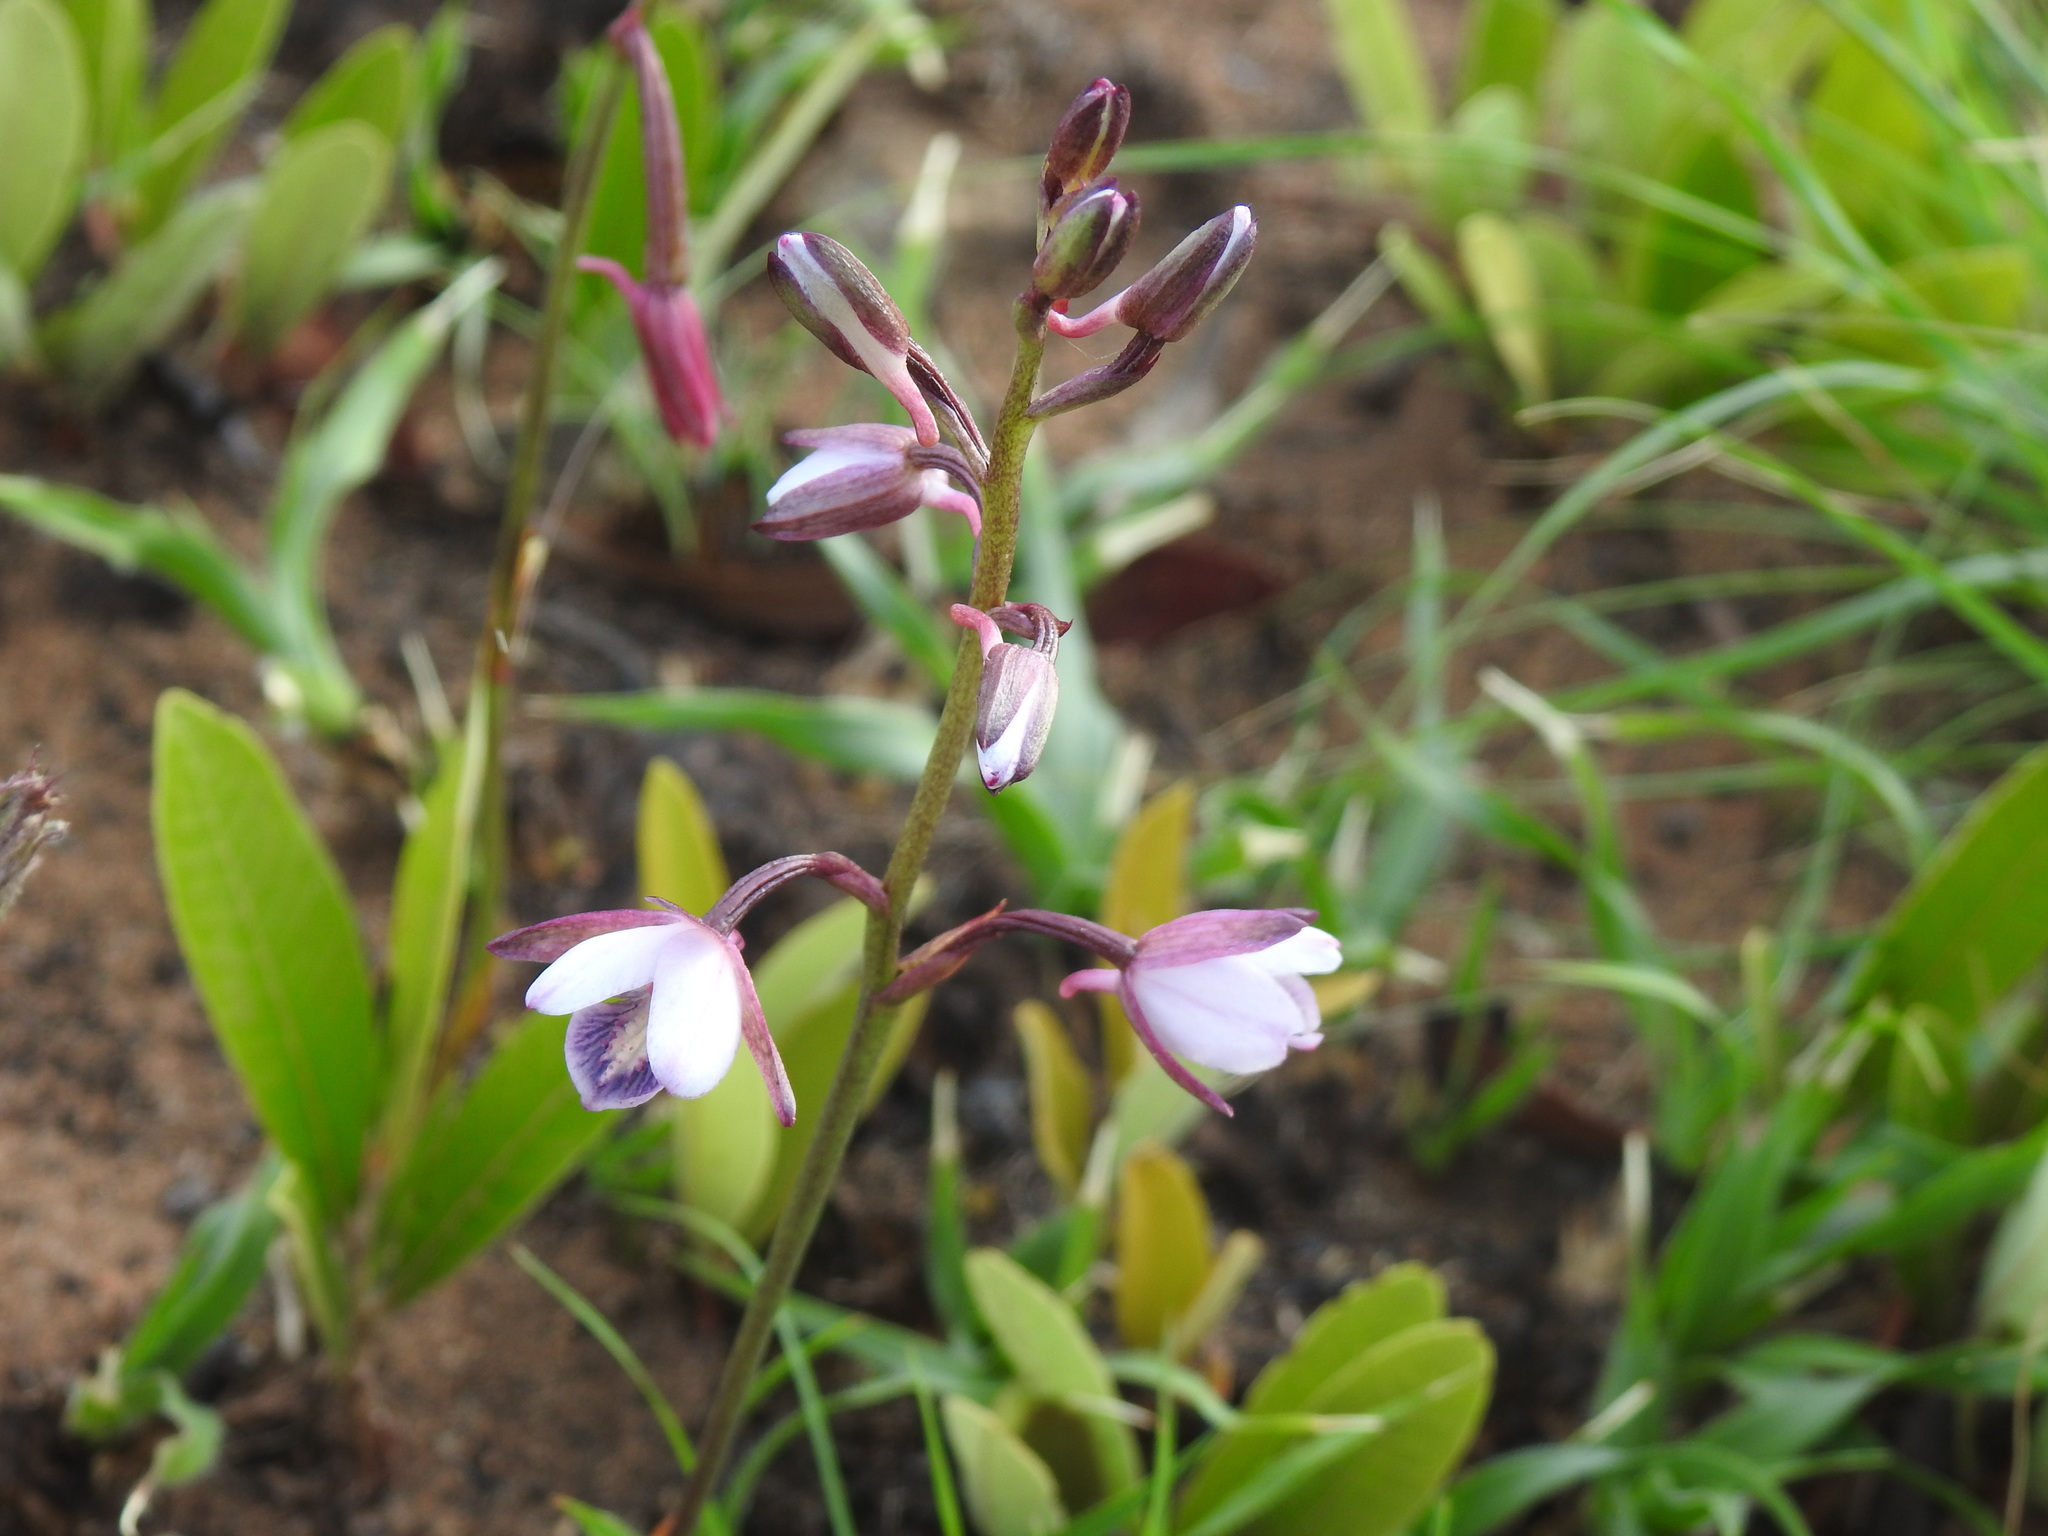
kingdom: Plantae
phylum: Tracheophyta
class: Liliopsida
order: Asparagales
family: Orchidaceae
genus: Eulophia
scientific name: Eulophia hians
